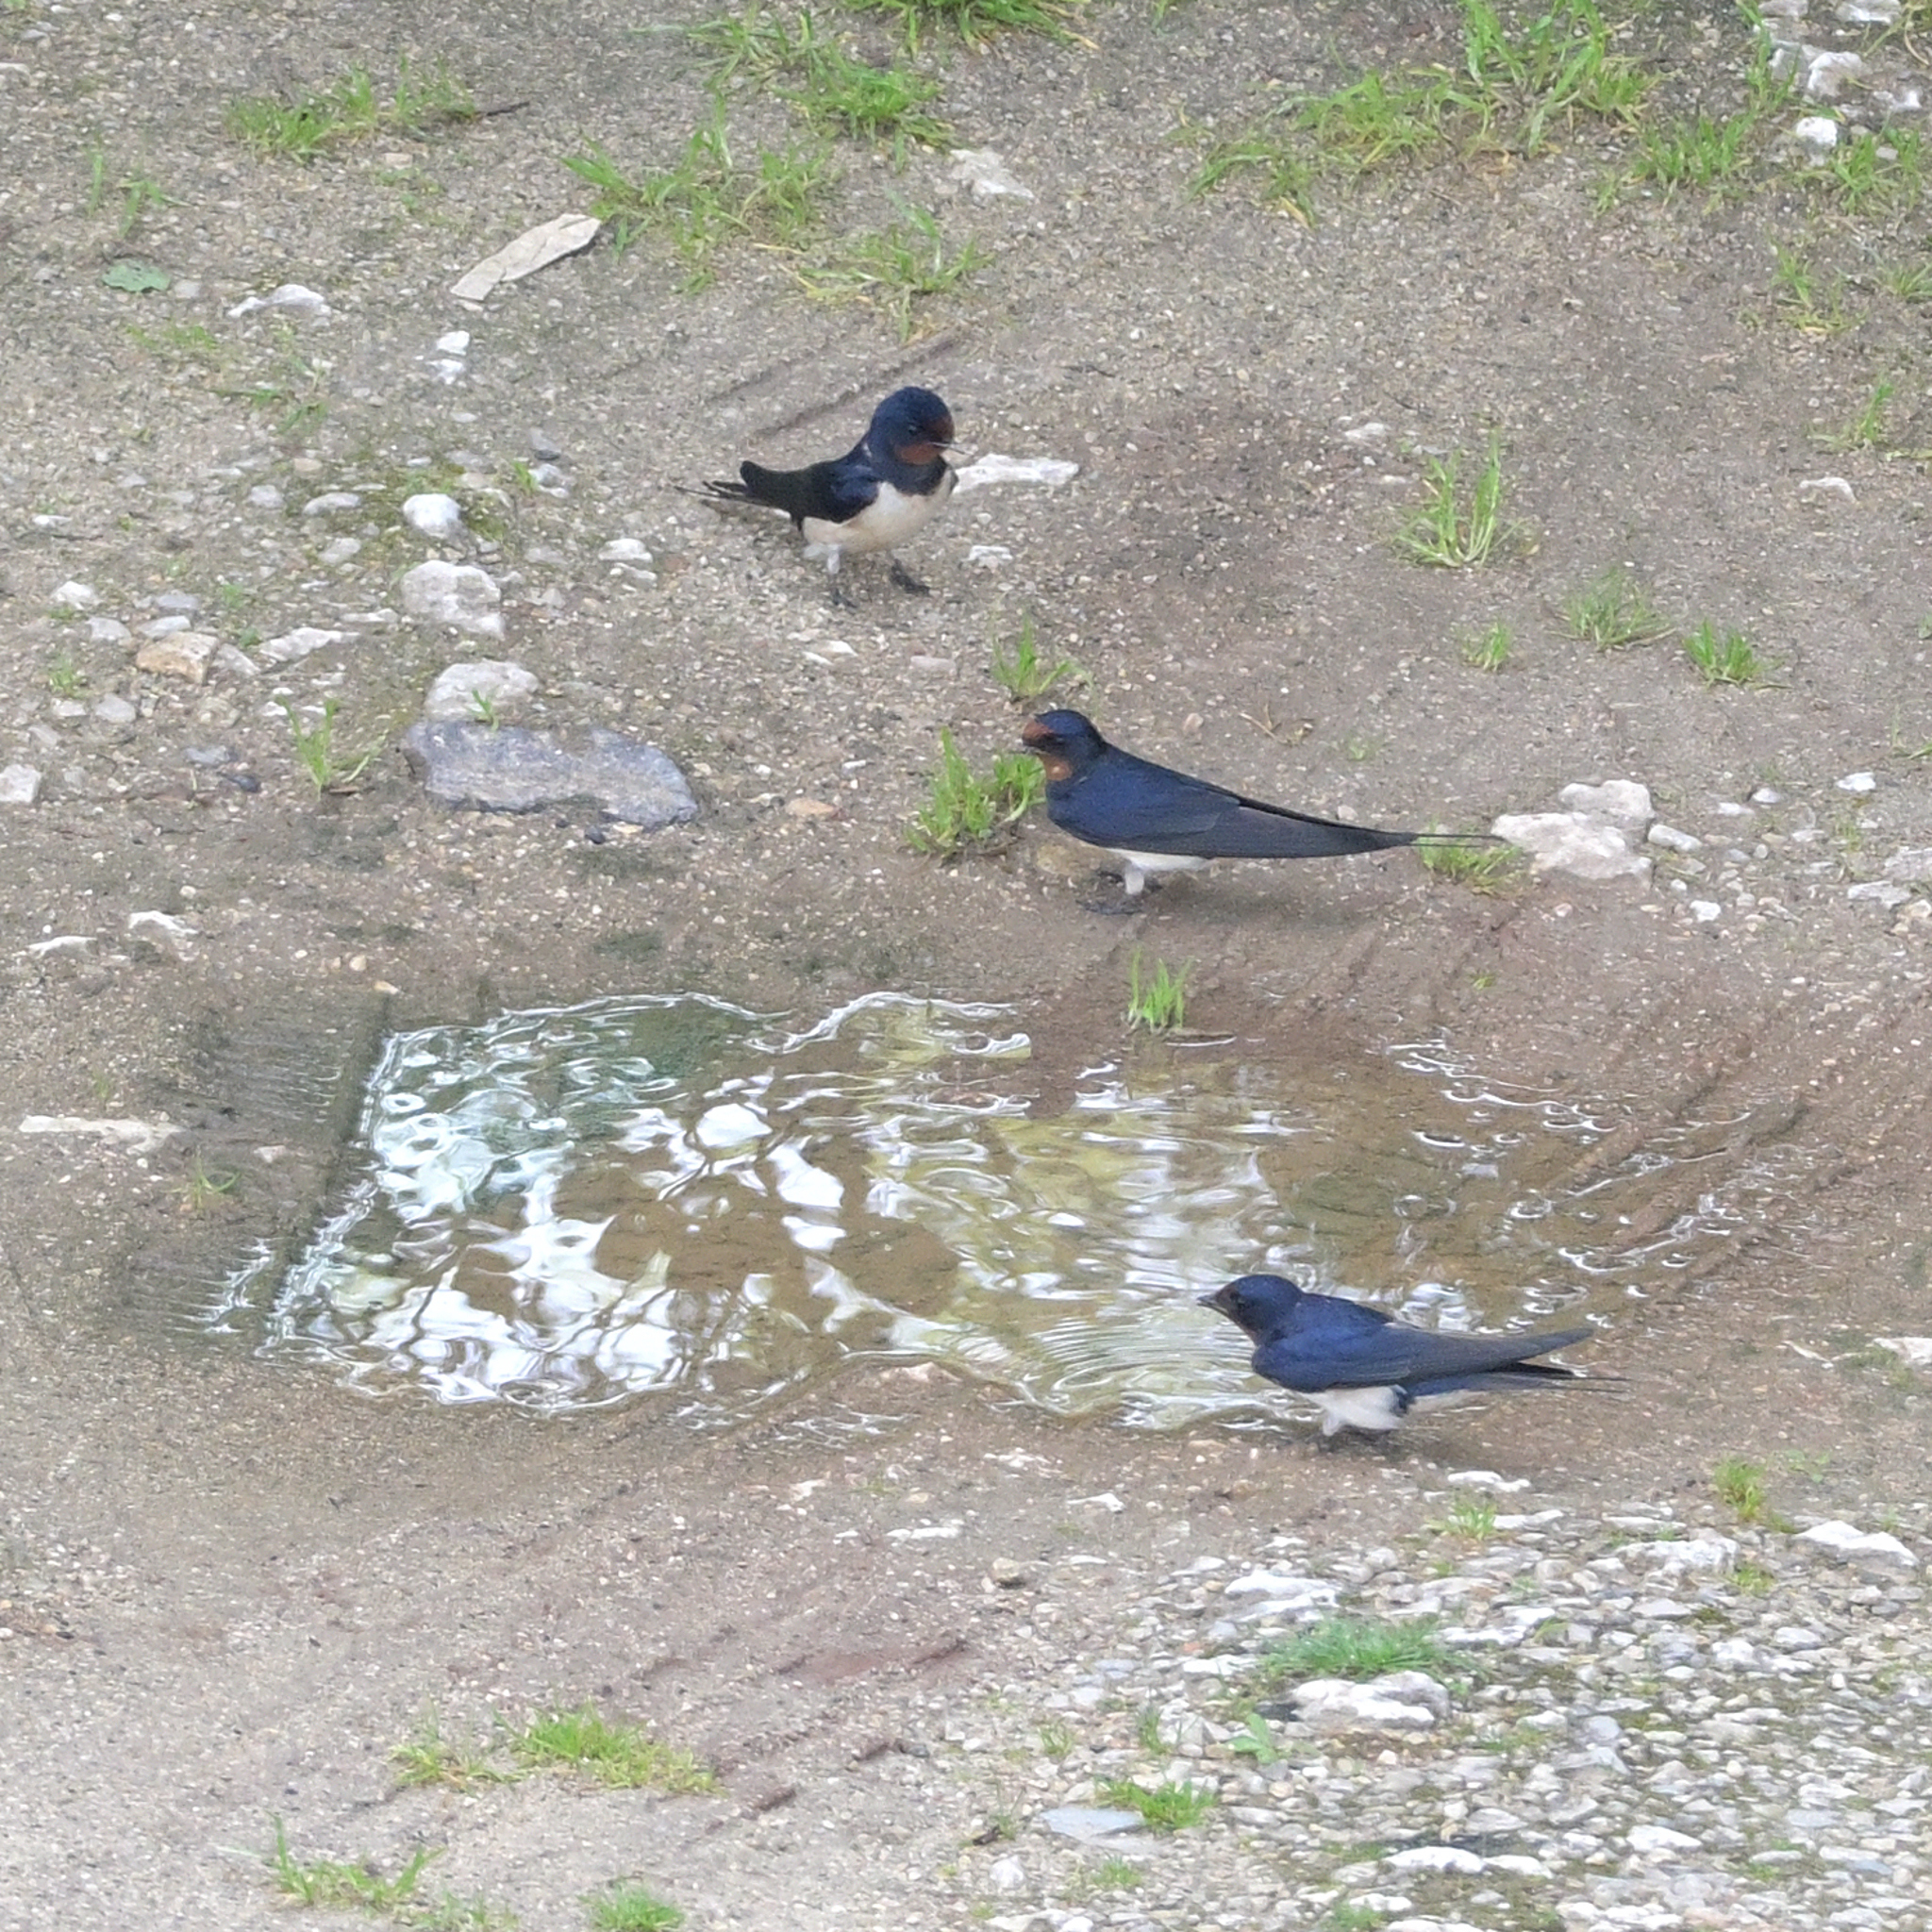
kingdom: Animalia
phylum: Chordata
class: Aves
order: Passeriformes
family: Hirundinidae
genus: Hirundo
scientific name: Hirundo rustica
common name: Barn swallow
